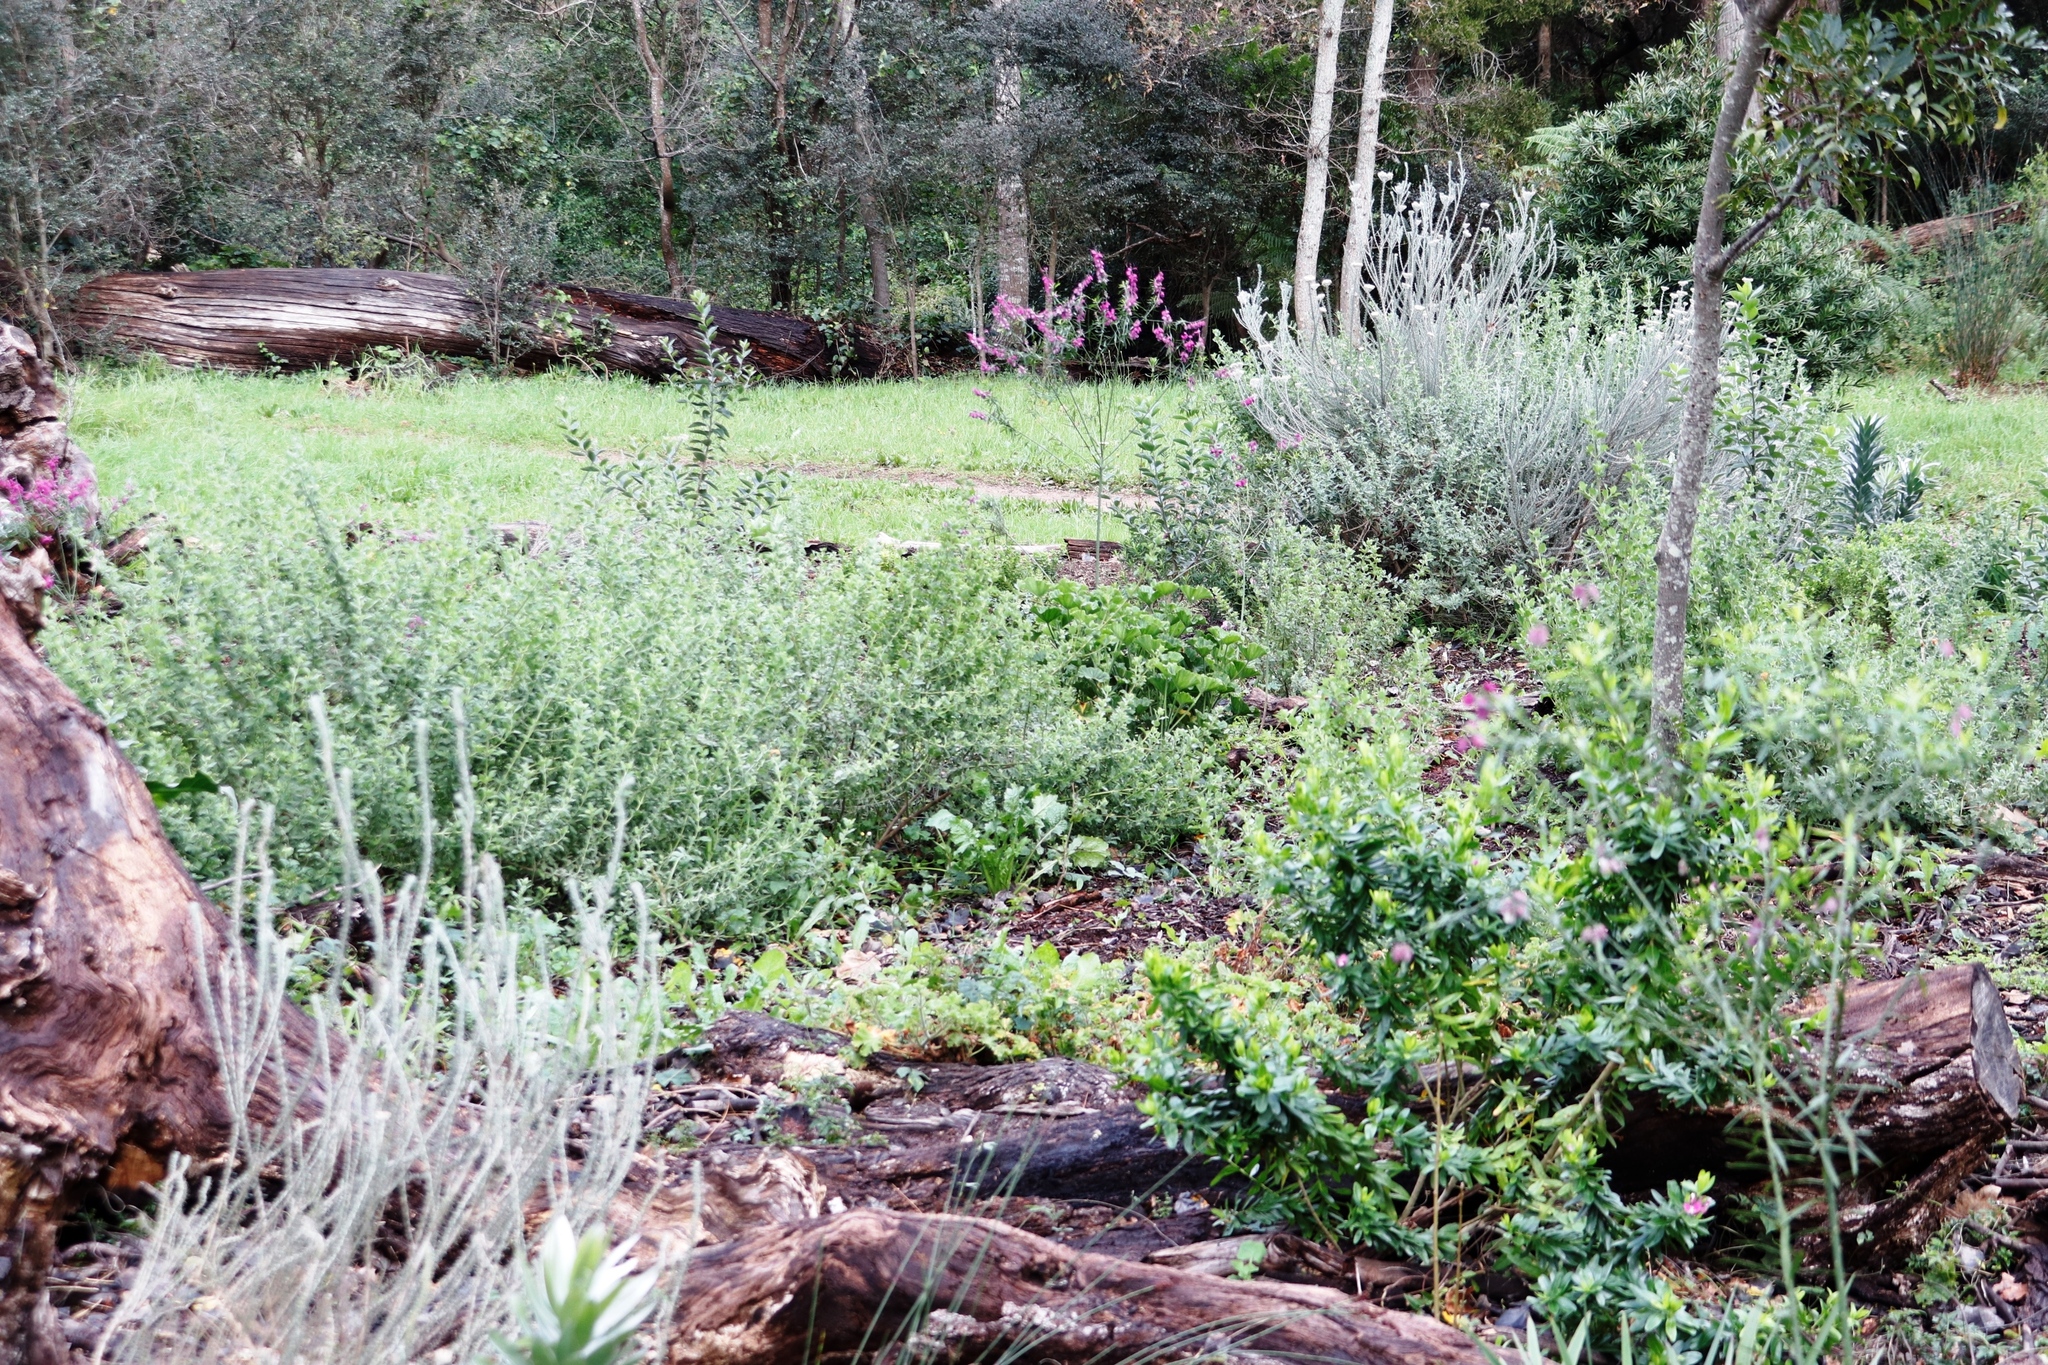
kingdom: Plantae
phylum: Tracheophyta
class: Magnoliopsida
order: Fabales
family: Polygalaceae
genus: Polygala
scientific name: Polygala virgata
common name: Milkwort
